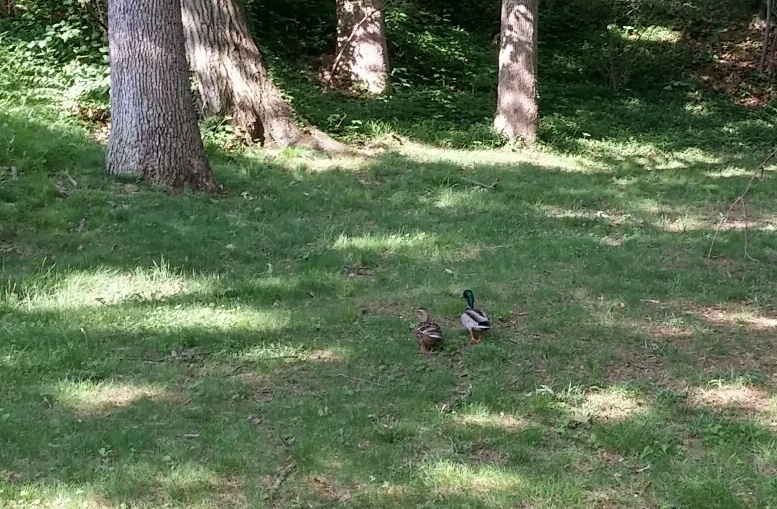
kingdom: Animalia
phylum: Chordata
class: Aves
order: Anseriformes
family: Anatidae
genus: Anas
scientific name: Anas platyrhynchos
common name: Mallard
